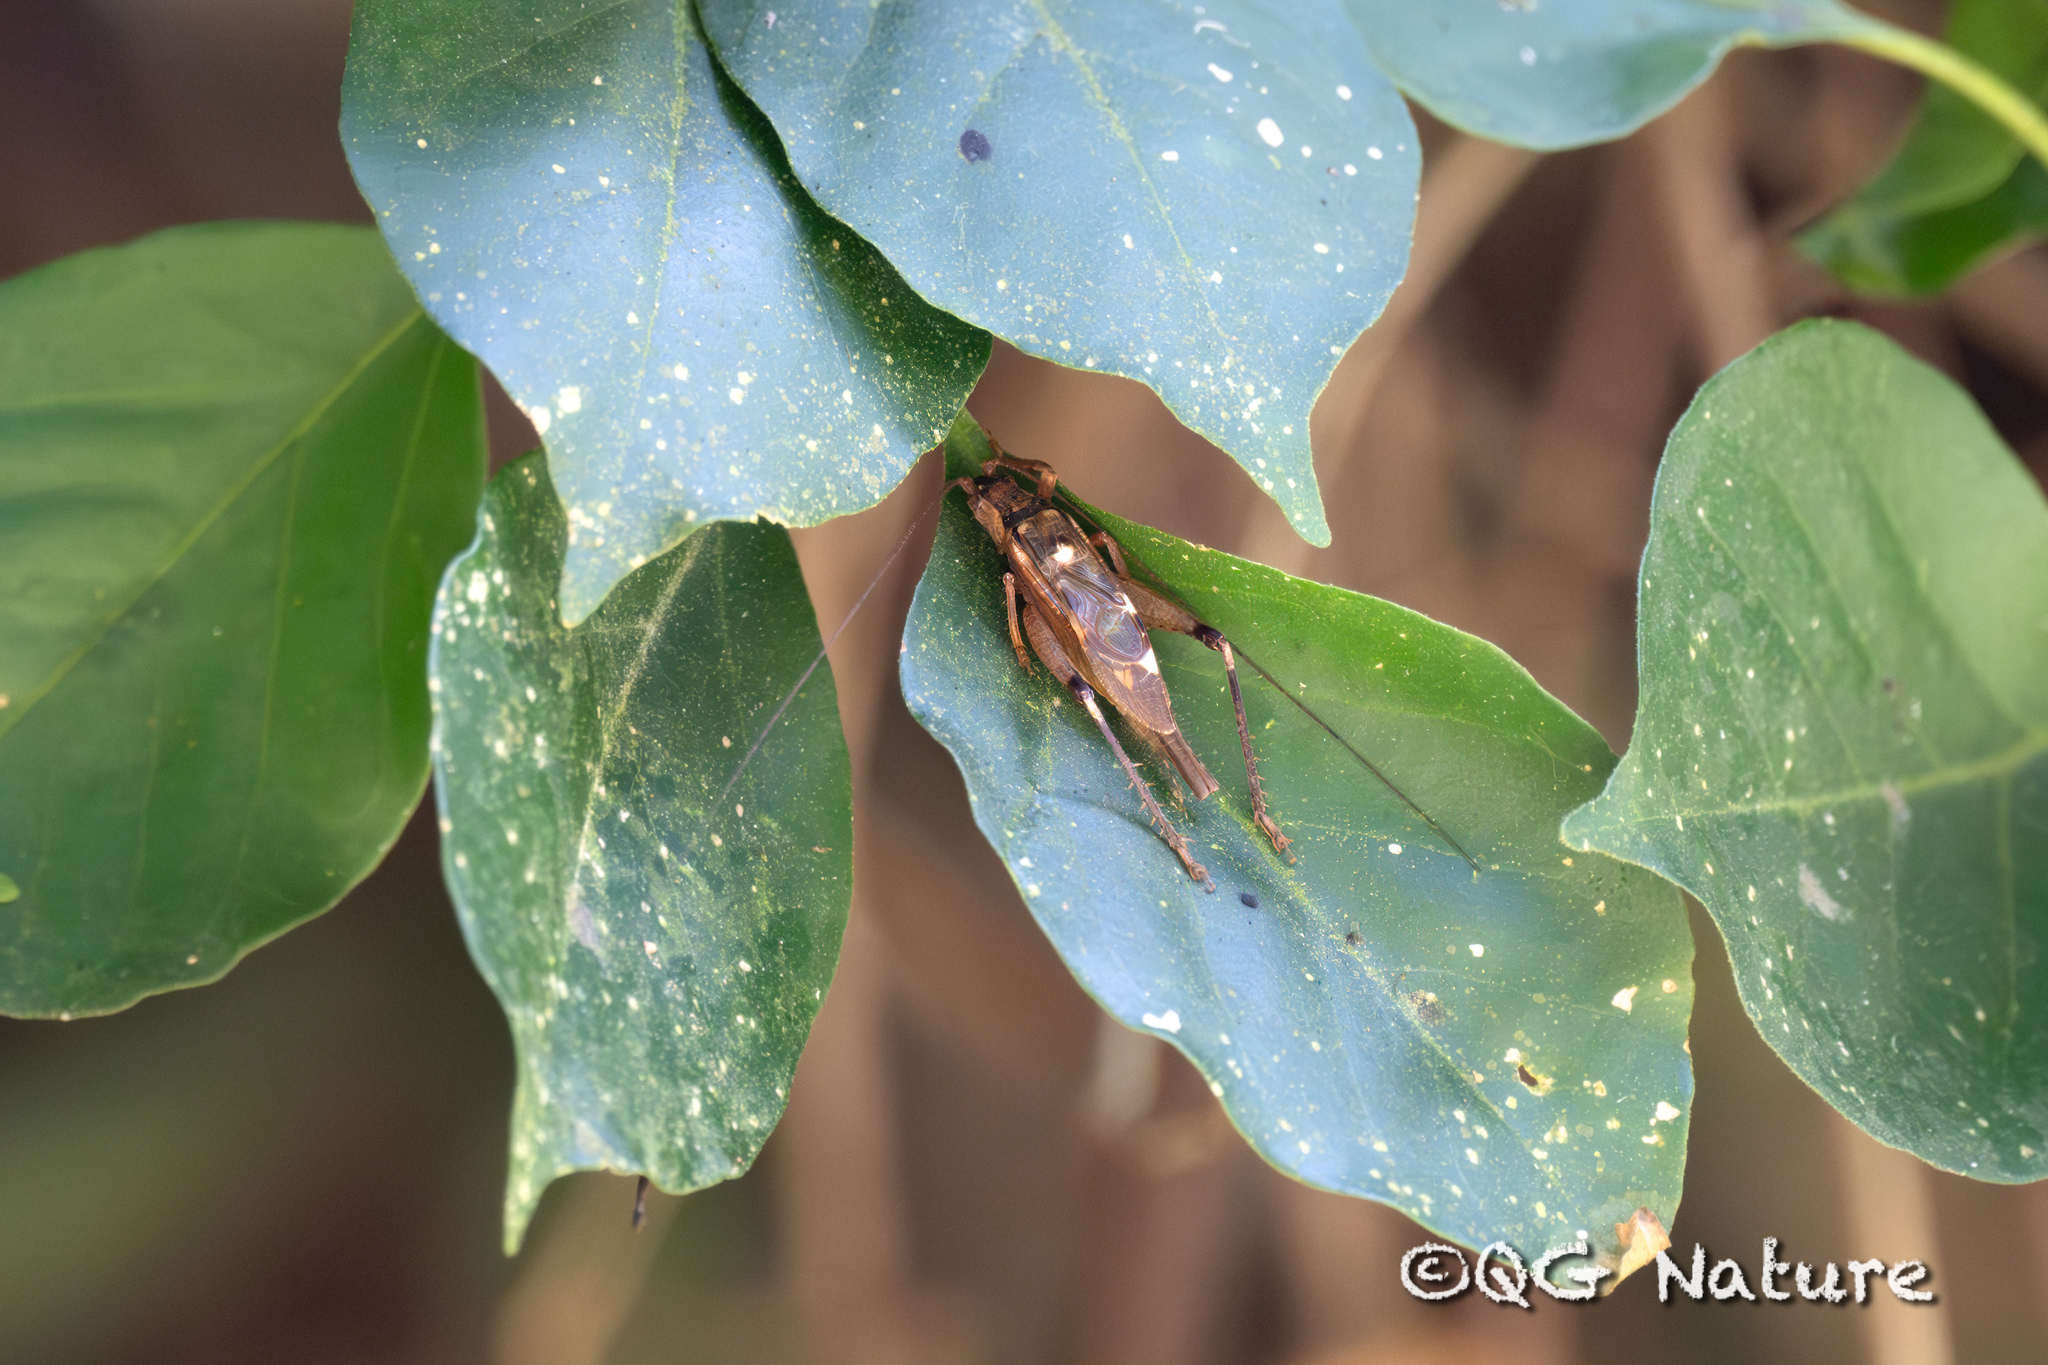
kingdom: Animalia
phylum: Arthropoda
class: Insecta
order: Orthoptera
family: Gryllidae
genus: Zvenella
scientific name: Zvenella yunnana
